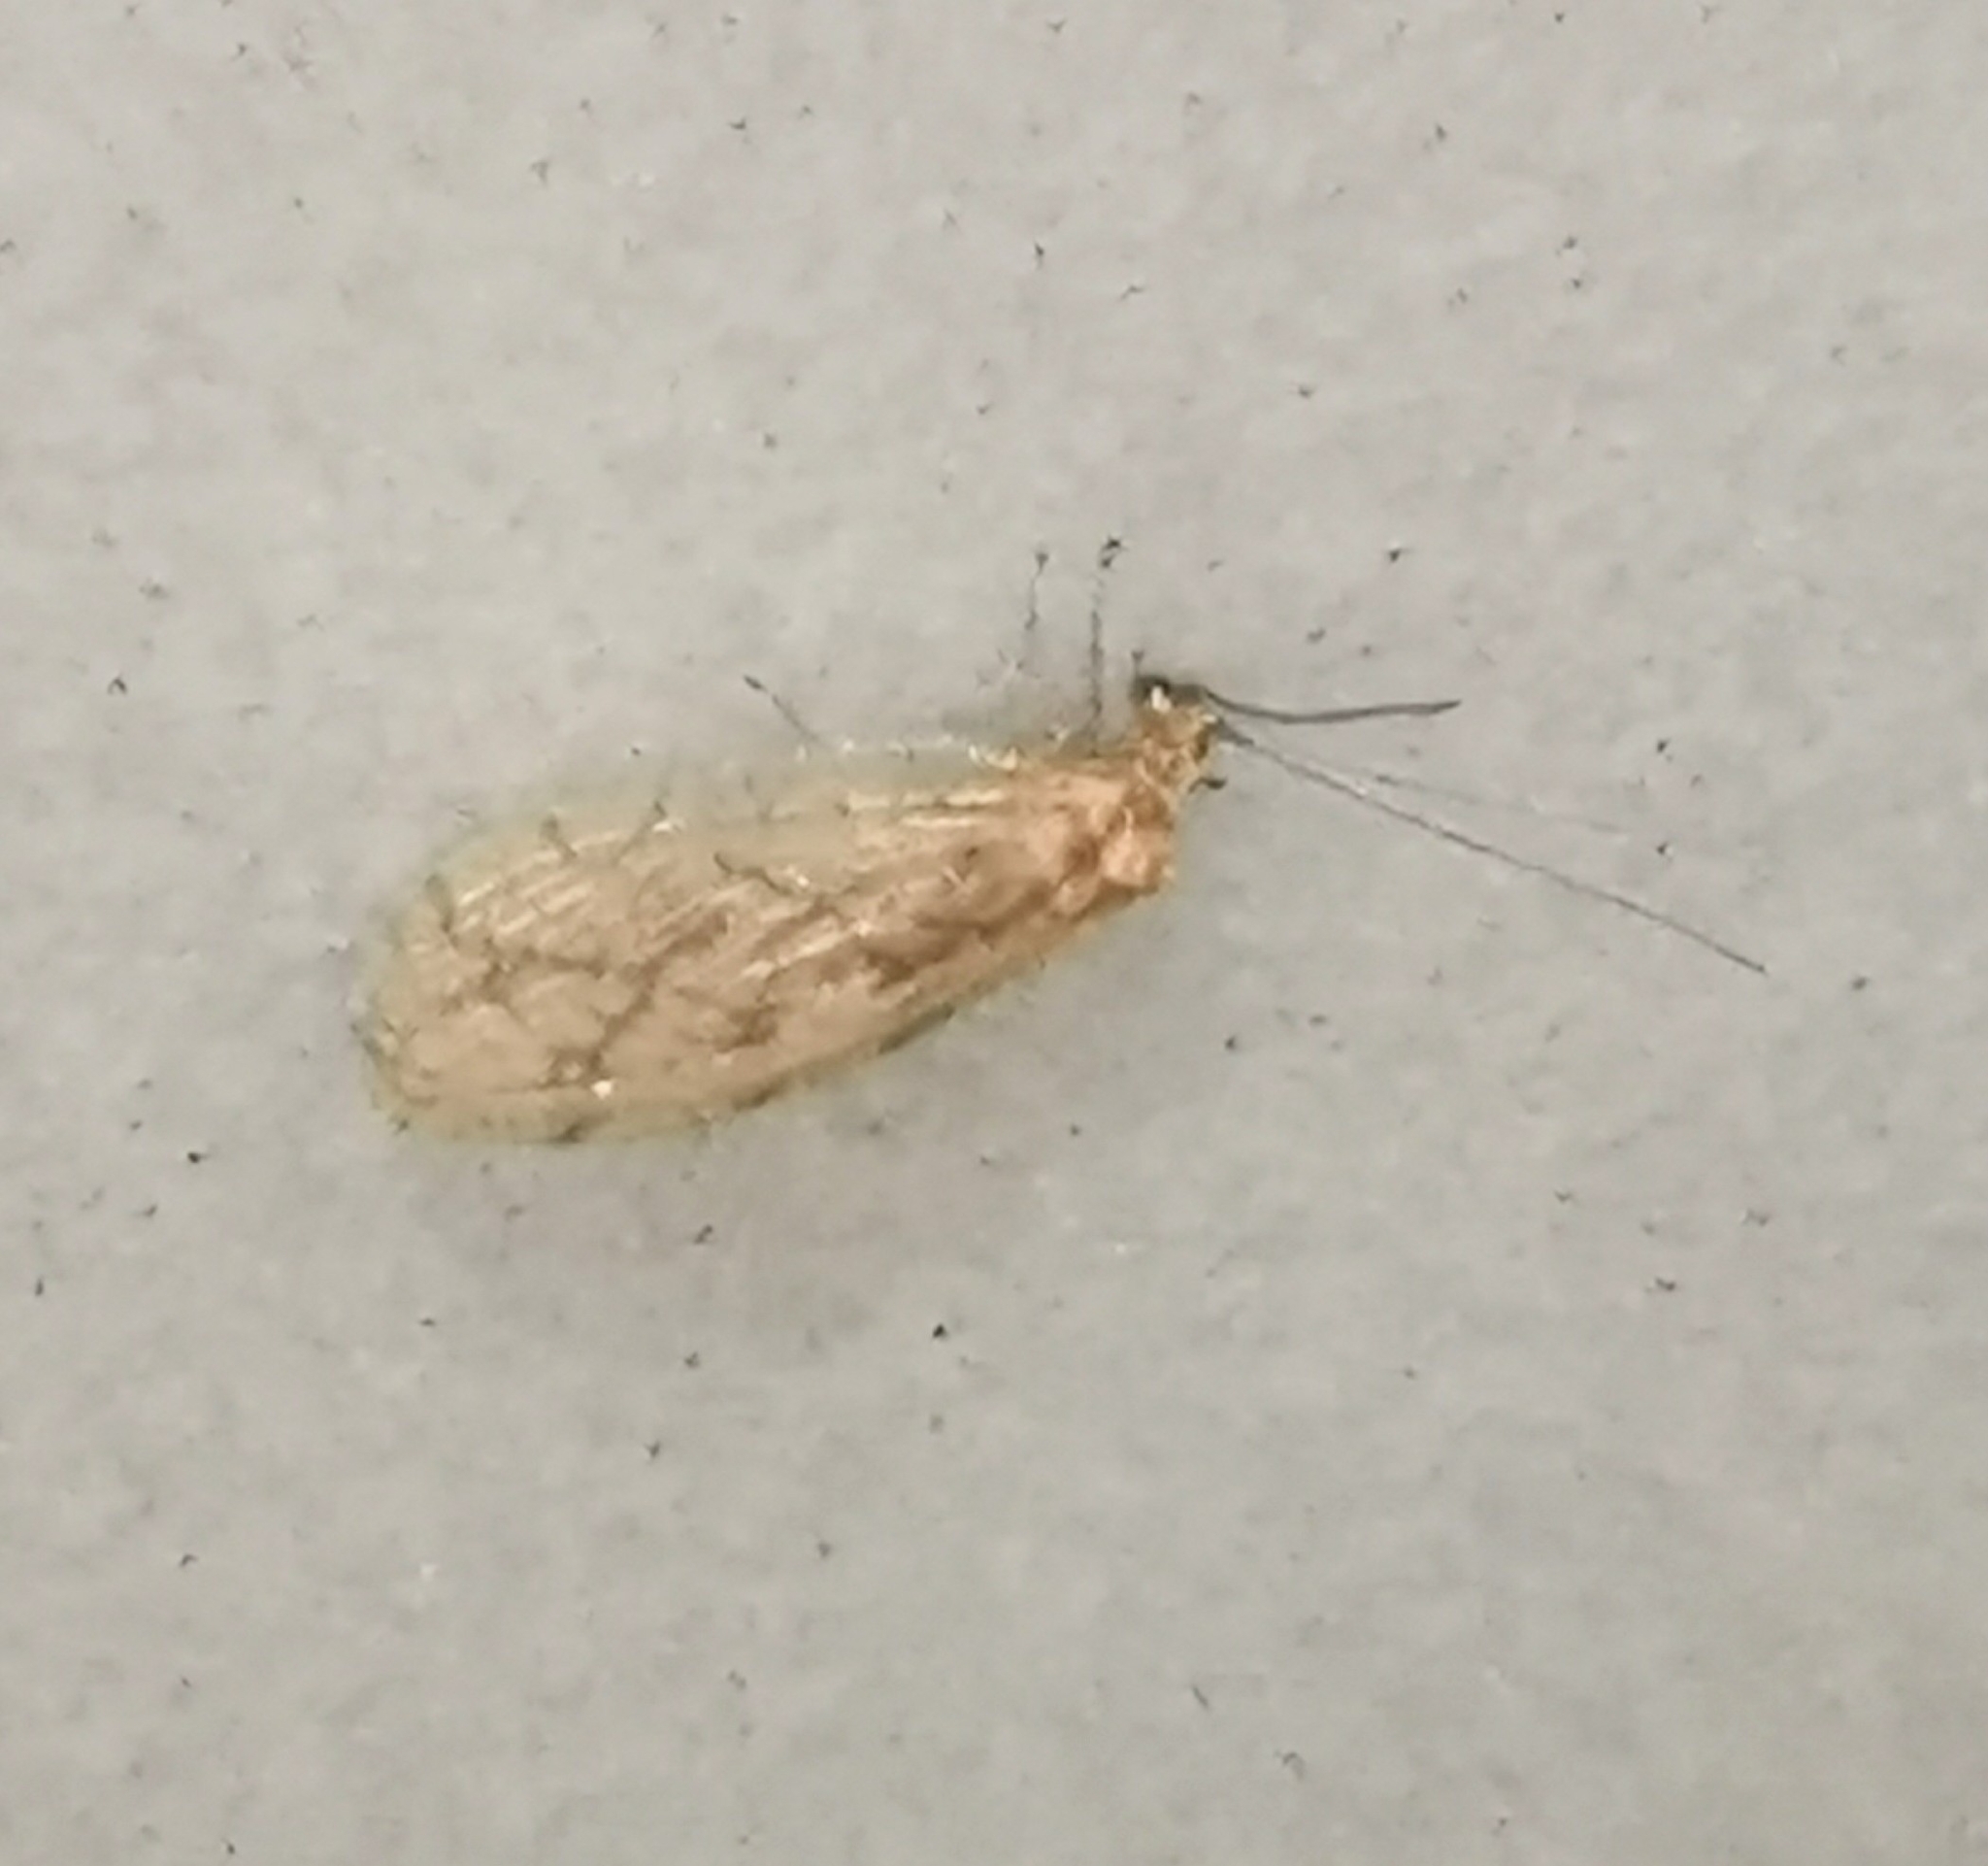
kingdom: Animalia
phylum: Arthropoda
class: Insecta
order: Neuroptera
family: Hemerobiidae
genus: Micromus
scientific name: Micromus paganus
